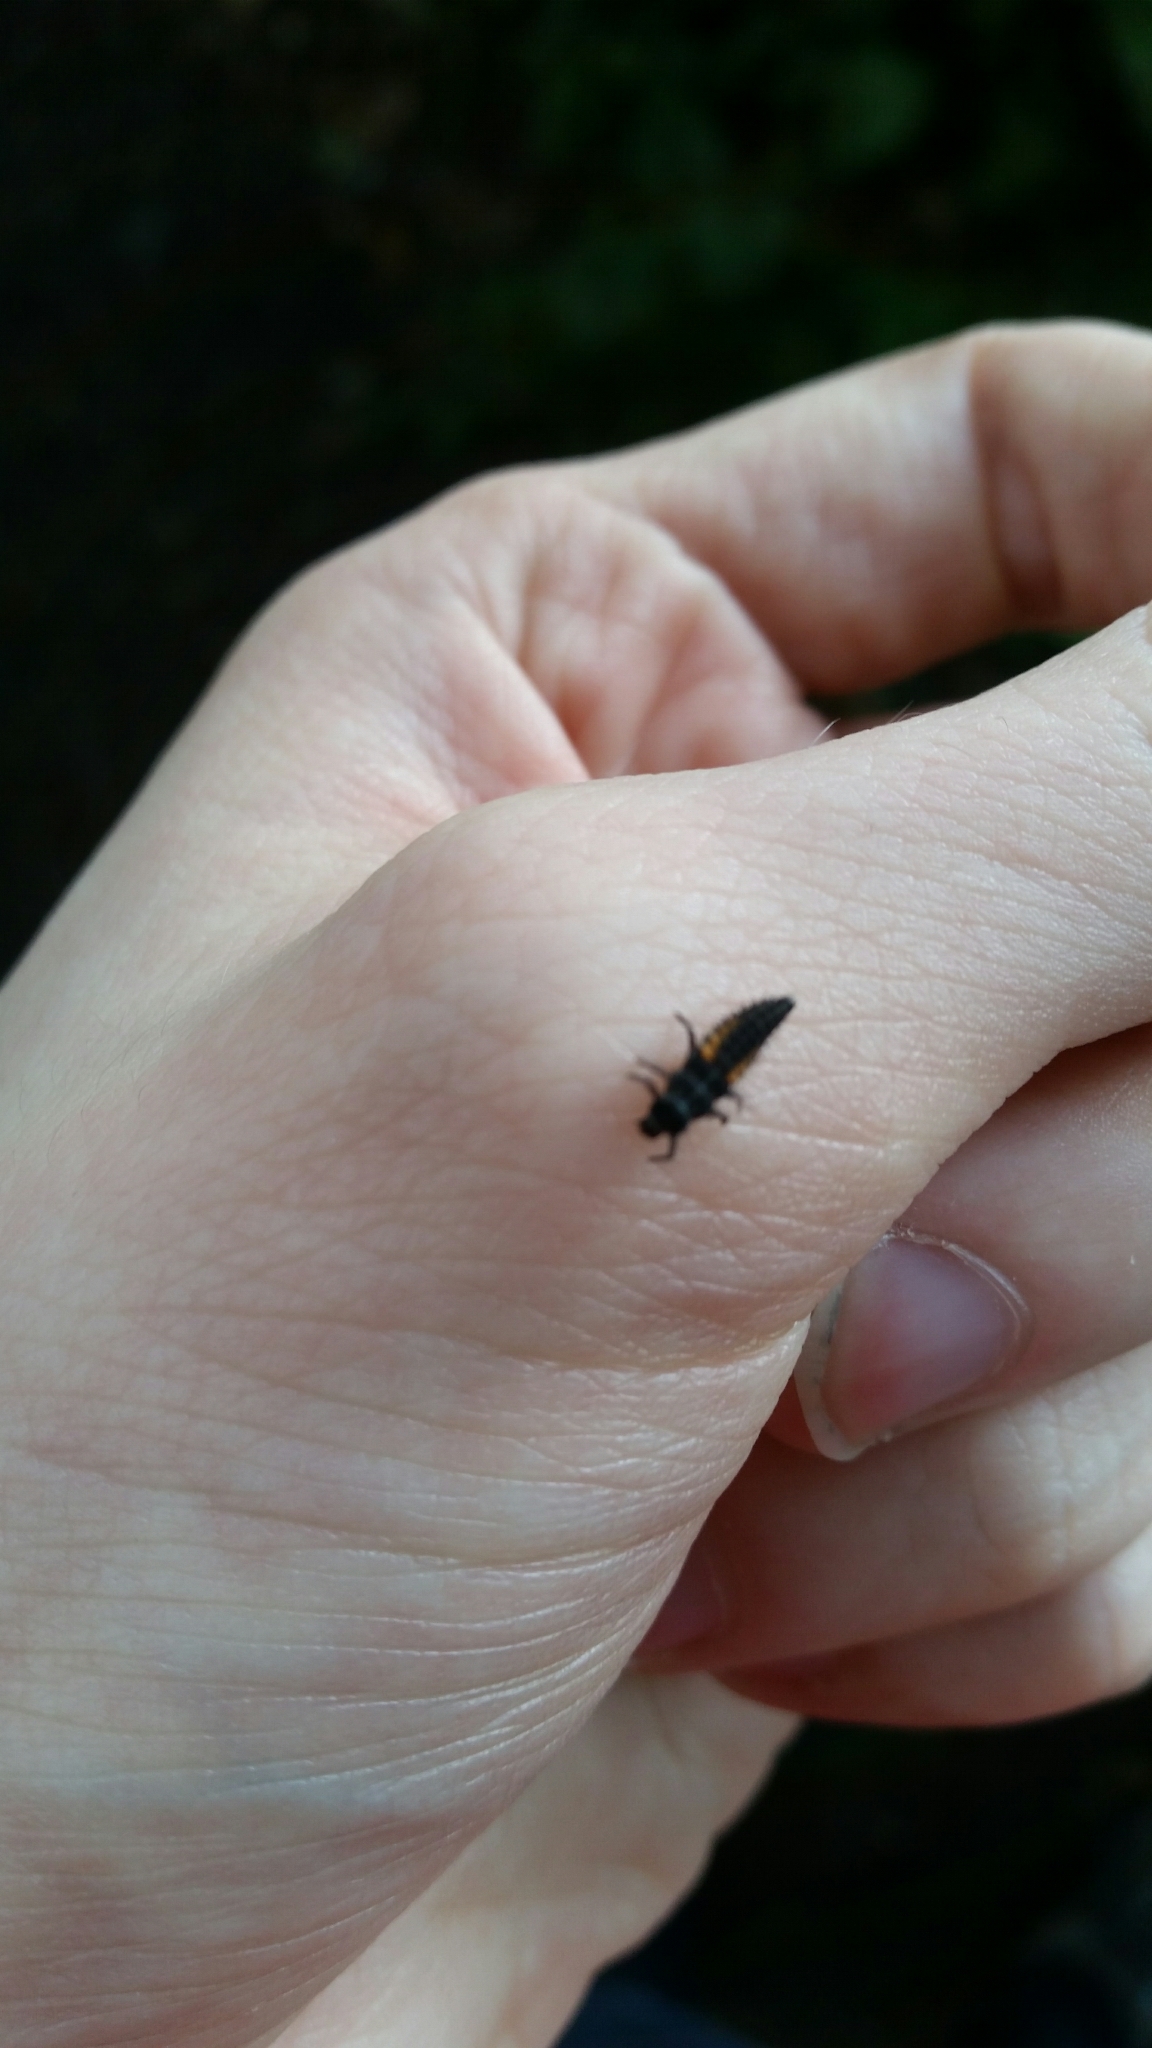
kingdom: Animalia
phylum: Arthropoda
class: Insecta
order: Coleoptera
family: Coccinellidae
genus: Harmonia
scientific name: Harmonia axyridis
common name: Harlequin ladybird
